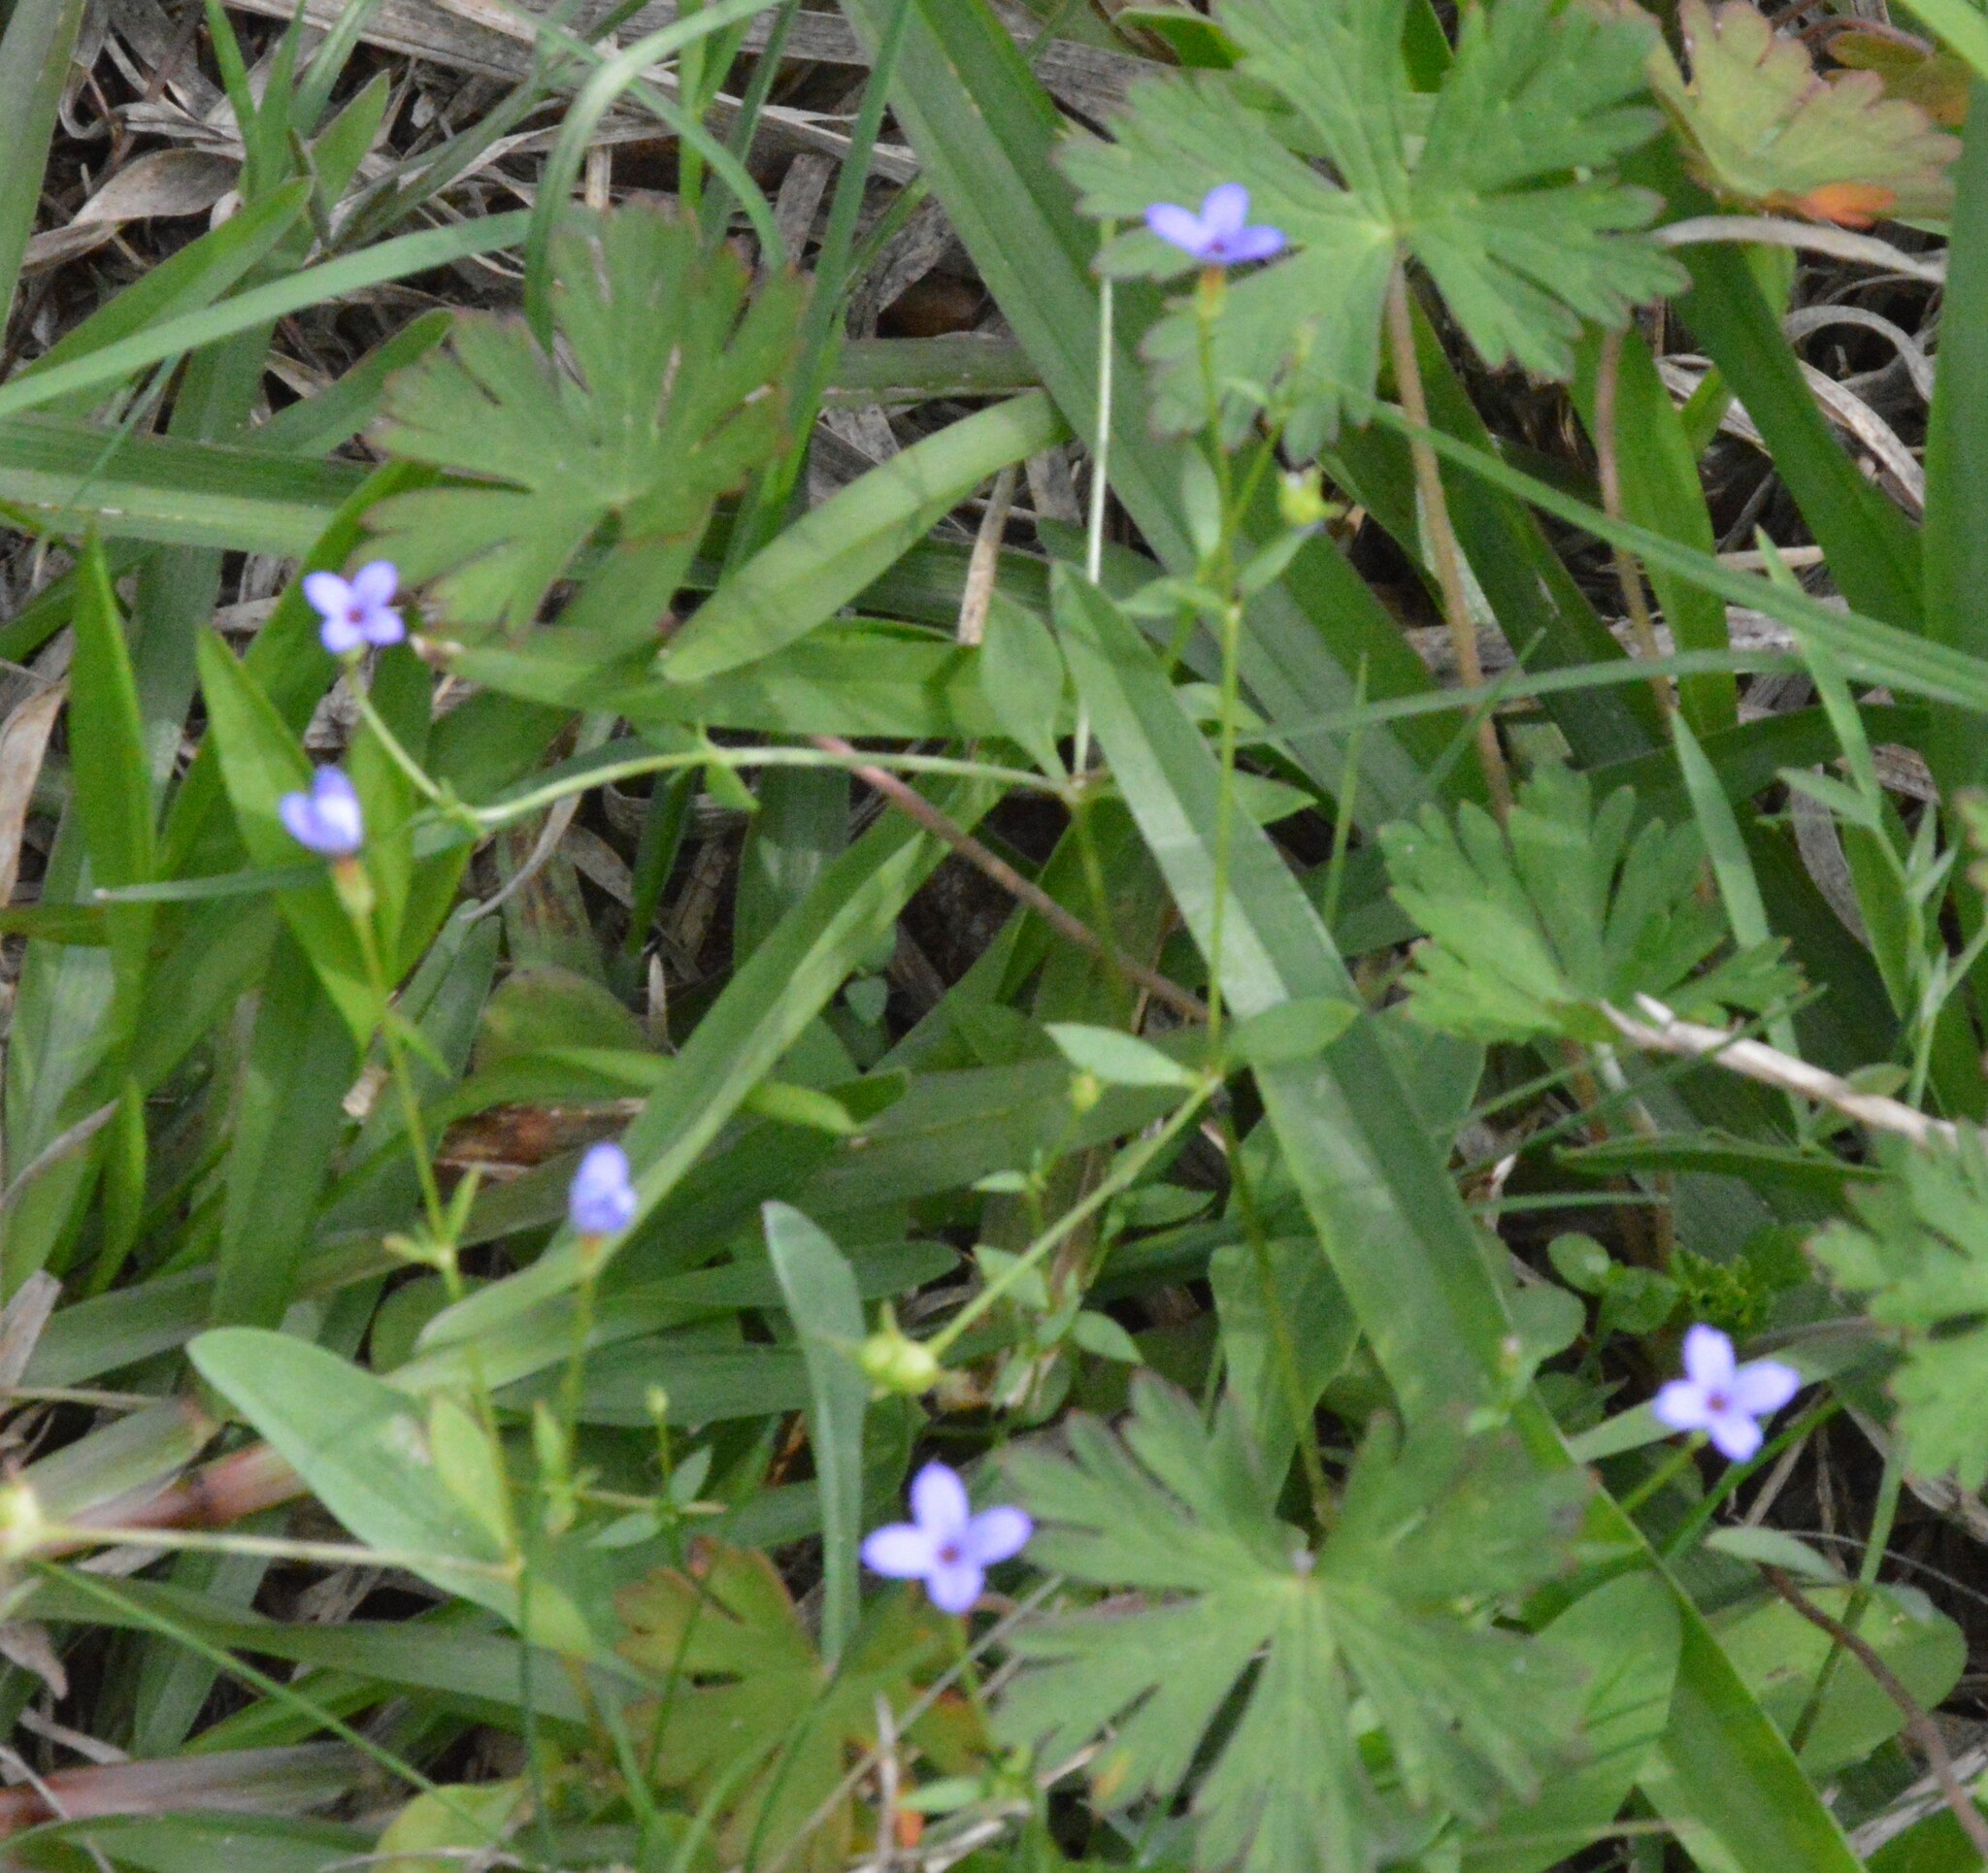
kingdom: Plantae
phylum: Tracheophyta
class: Magnoliopsida
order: Gentianales
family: Rubiaceae
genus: Houstonia
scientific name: Houstonia pusilla
